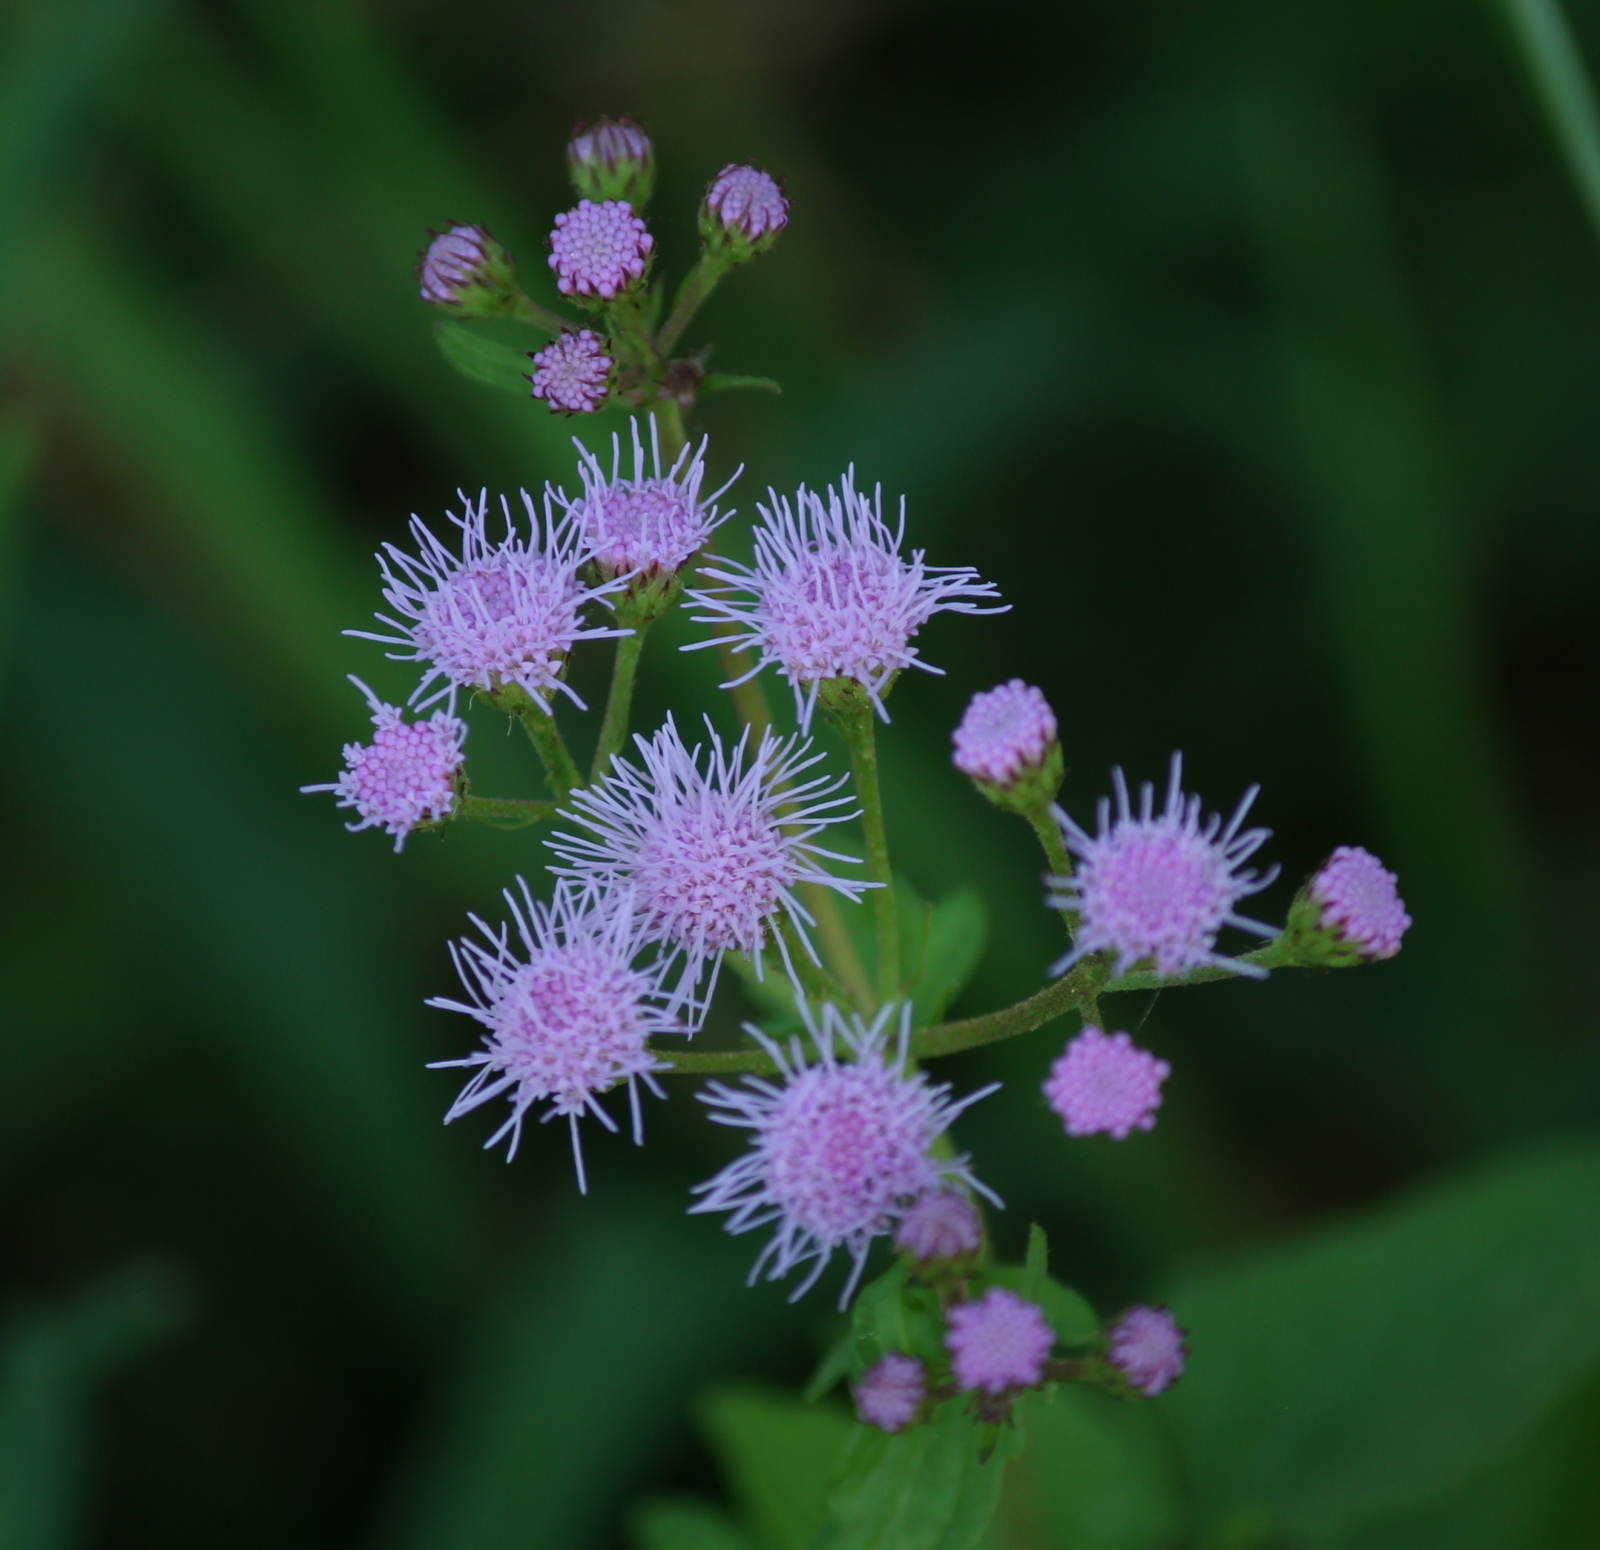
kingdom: Plantae
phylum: Tracheophyta
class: Magnoliopsida
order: Asterales
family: Asteraceae
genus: Conoclinium
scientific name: Conoclinium coelestinum
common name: Blue mistflower
